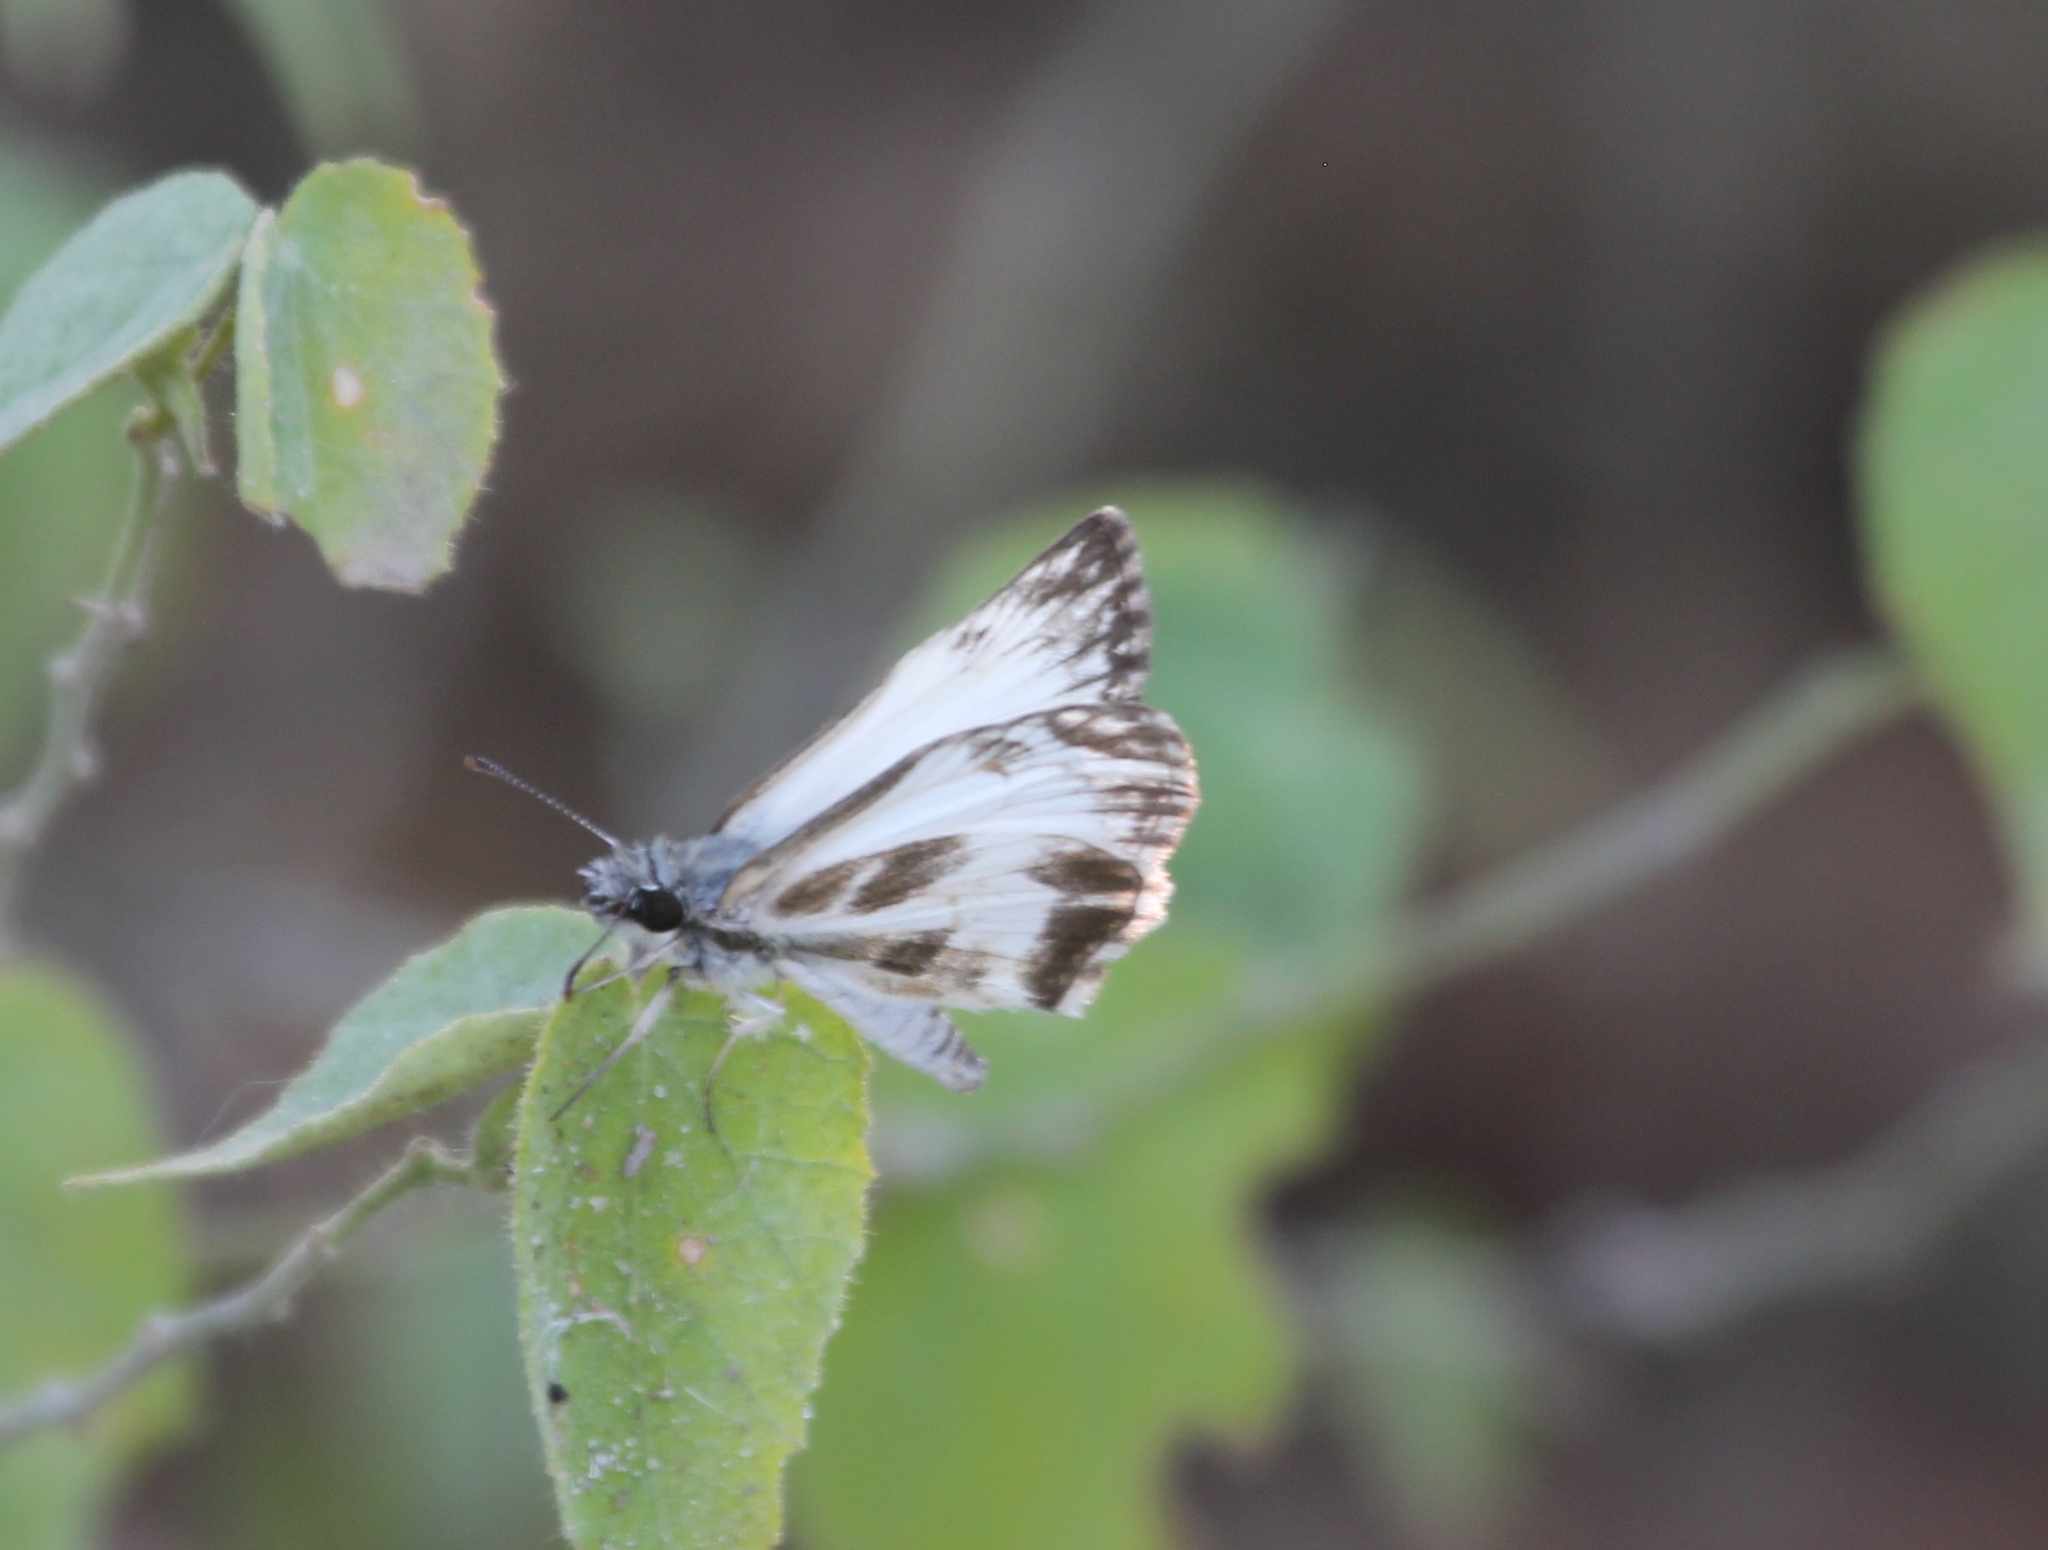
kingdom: Animalia
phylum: Arthropoda
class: Insecta
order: Lepidoptera
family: Hesperiidae
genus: Heliopetes
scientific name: Heliopetes macaira
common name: Turk's-cap white-skipper
